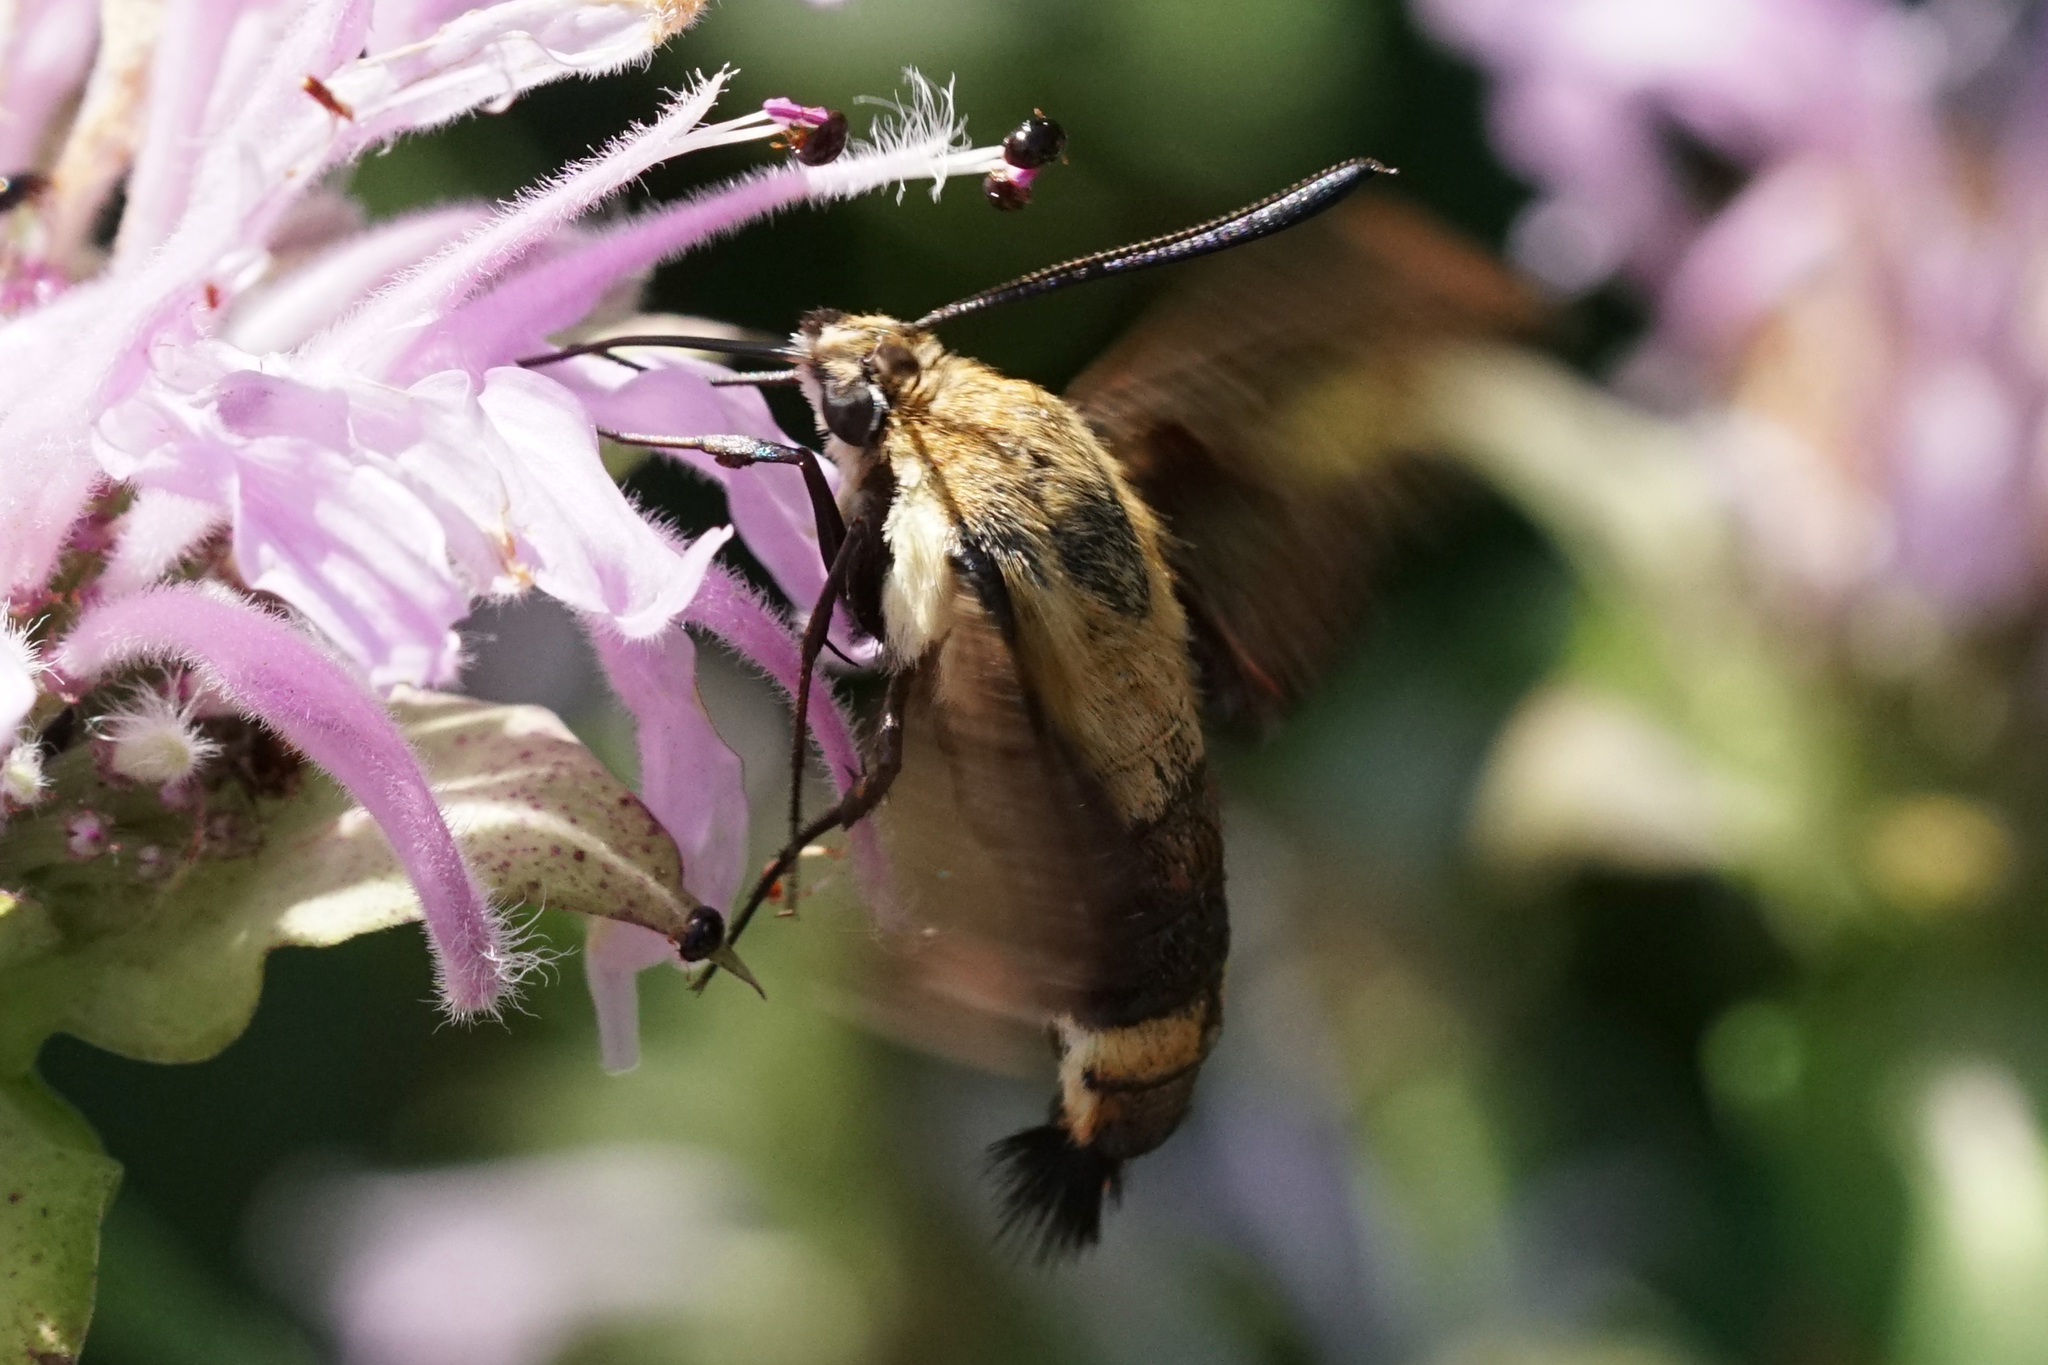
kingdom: Animalia
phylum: Arthropoda
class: Insecta
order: Lepidoptera
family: Sphingidae
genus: Hemaris
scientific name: Hemaris diffinis
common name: Bumblebee moth
